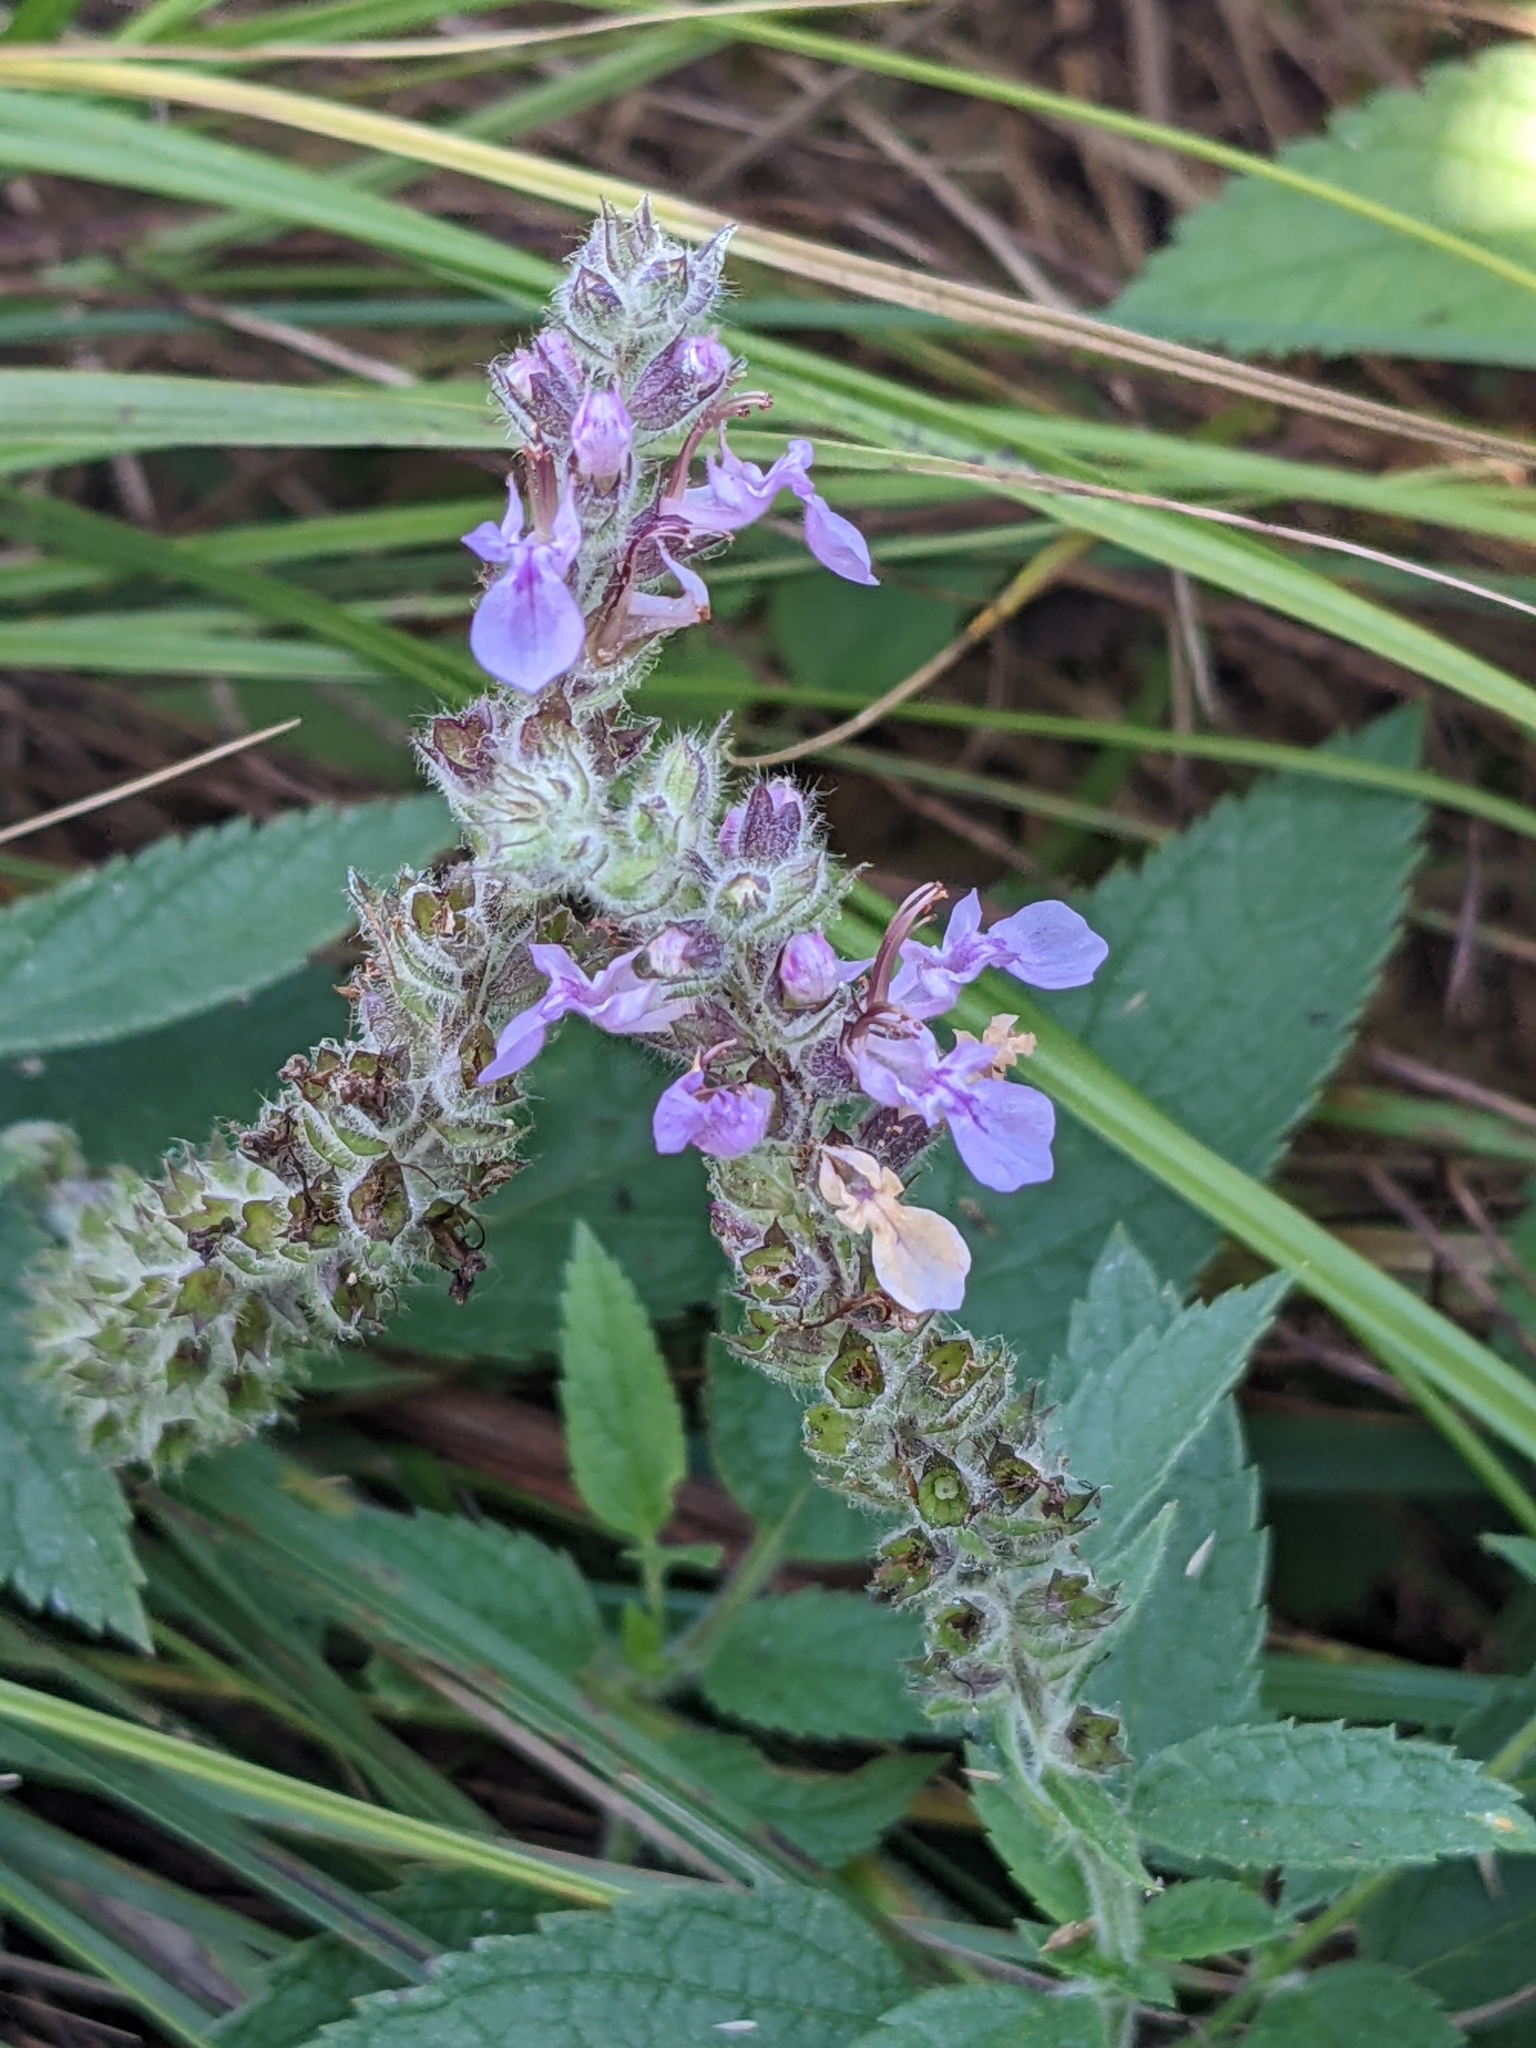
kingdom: Plantae
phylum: Tracheophyta
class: Magnoliopsida
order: Lamiales
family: Lamiaceae
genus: Teucrium
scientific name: Teucrium canadense
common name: American germander
